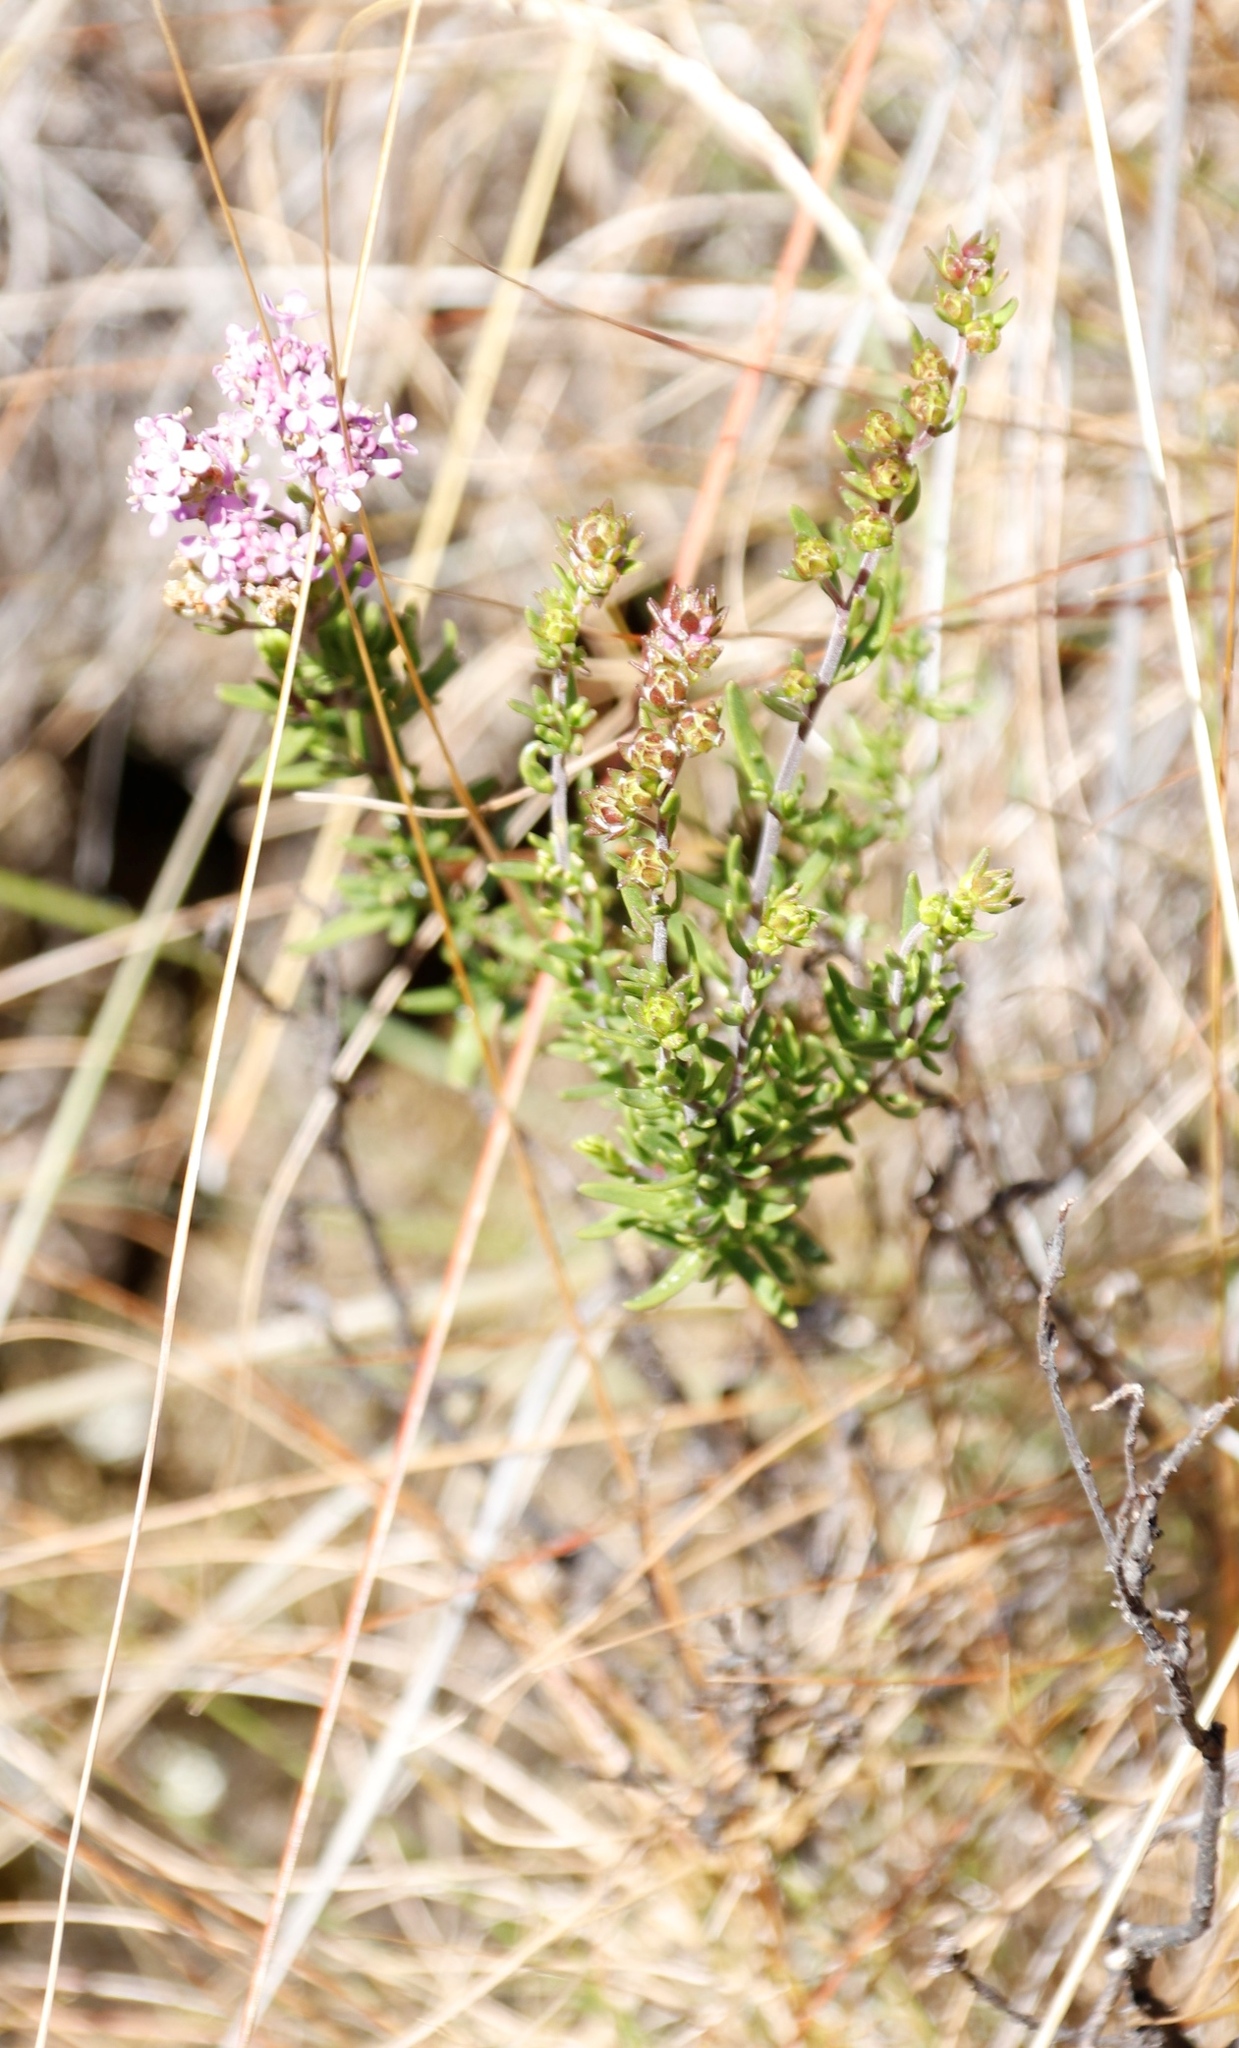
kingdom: Plantae
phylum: Tracheophyta
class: Magnoliopsida
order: Lamiales
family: Scrophulariaceae
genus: Selago
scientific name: Selago densiflora
